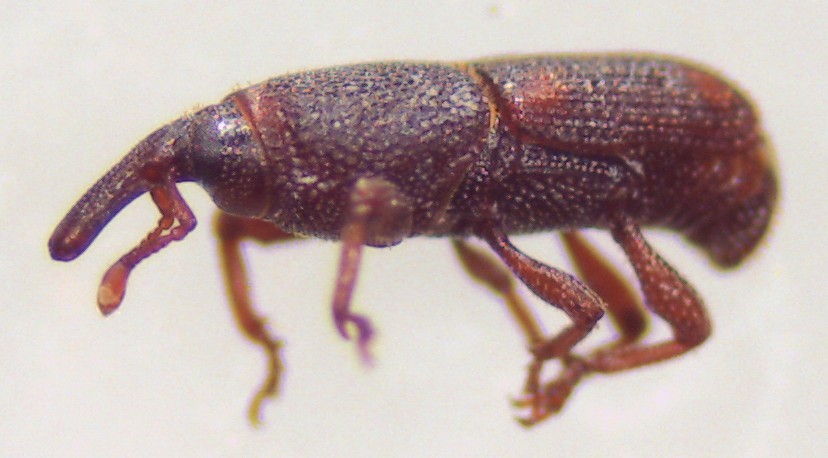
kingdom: Animalia
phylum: Arthropoda
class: Insecta
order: Coleoptera
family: Dryophthoridae
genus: Sitophilus
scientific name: Sitophilus oryzae
